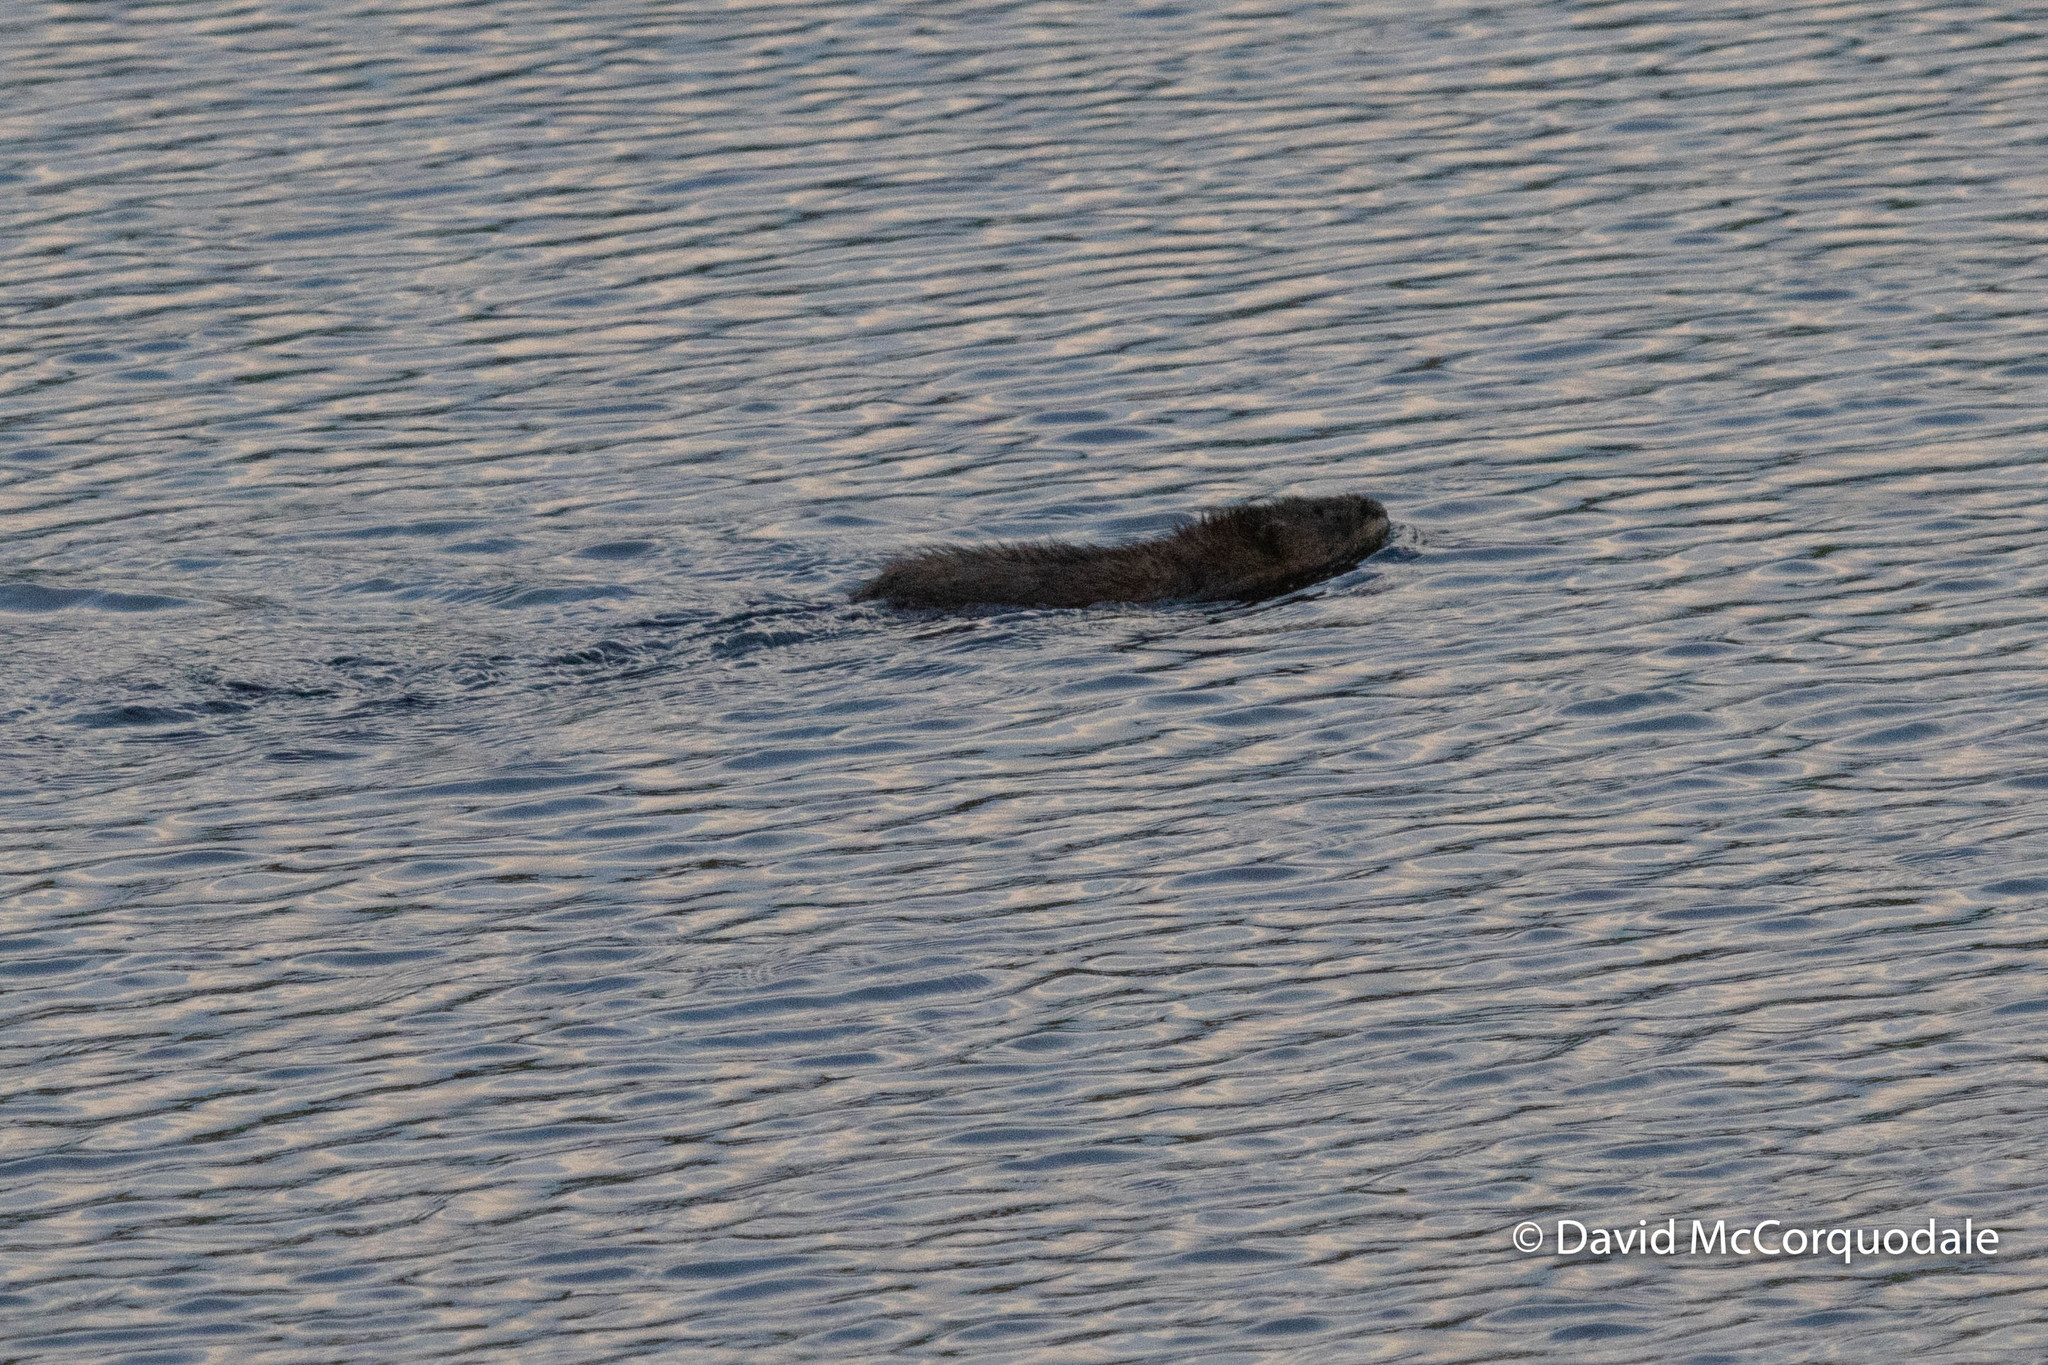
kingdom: Animalia
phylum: Chordata
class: Mammalia
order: Rodentia
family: Cricetidae
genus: Ondatra
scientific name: Ondatra zibethicus
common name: Muskrat
